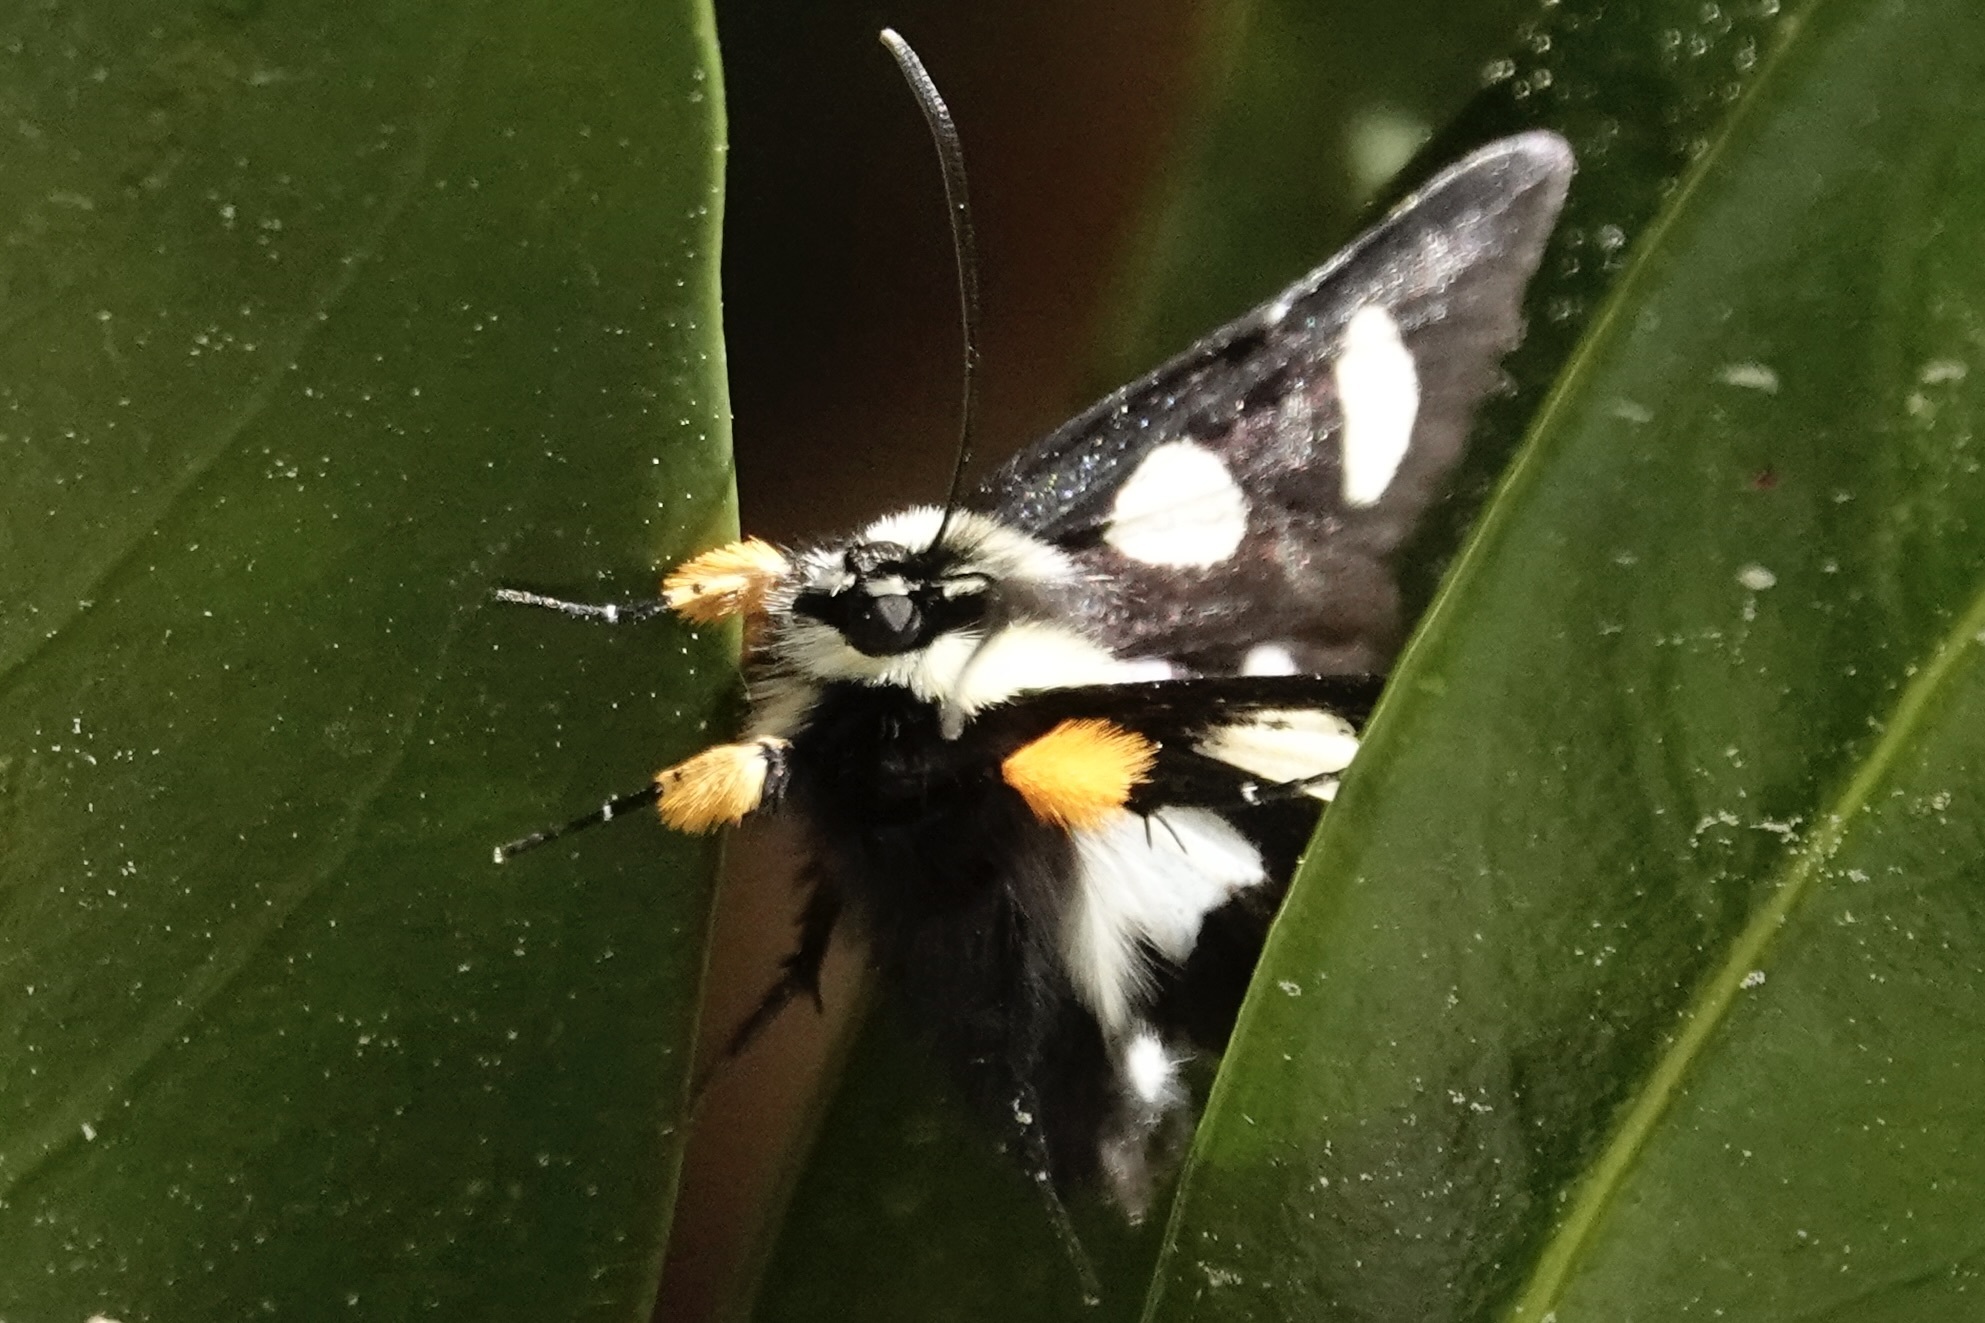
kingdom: Animalia
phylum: Arthropoda
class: Insecta
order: Lepidoptera
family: Noctuidae
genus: Alypia
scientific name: Alypia octomaculata
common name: Eight-spotted forester
